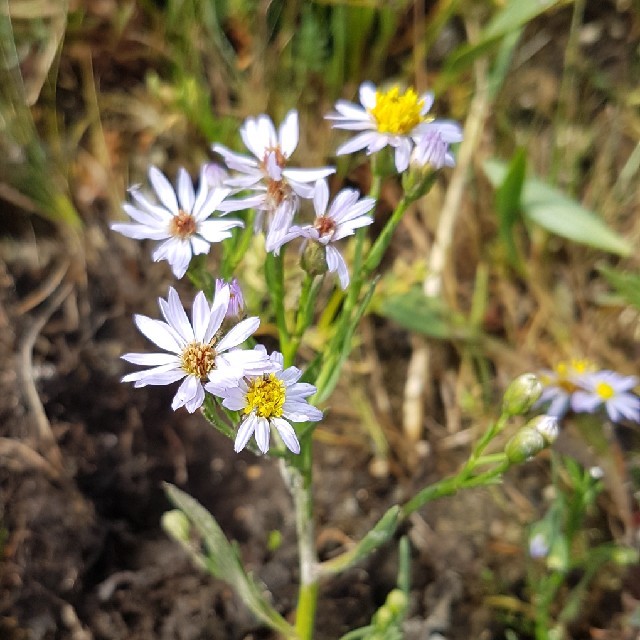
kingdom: Plantae
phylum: Tracheophyta
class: Magnoliopsida
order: Asterales
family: Asteraceae
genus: Tripolium
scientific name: Tripolium pannonicum
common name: Sea aster
